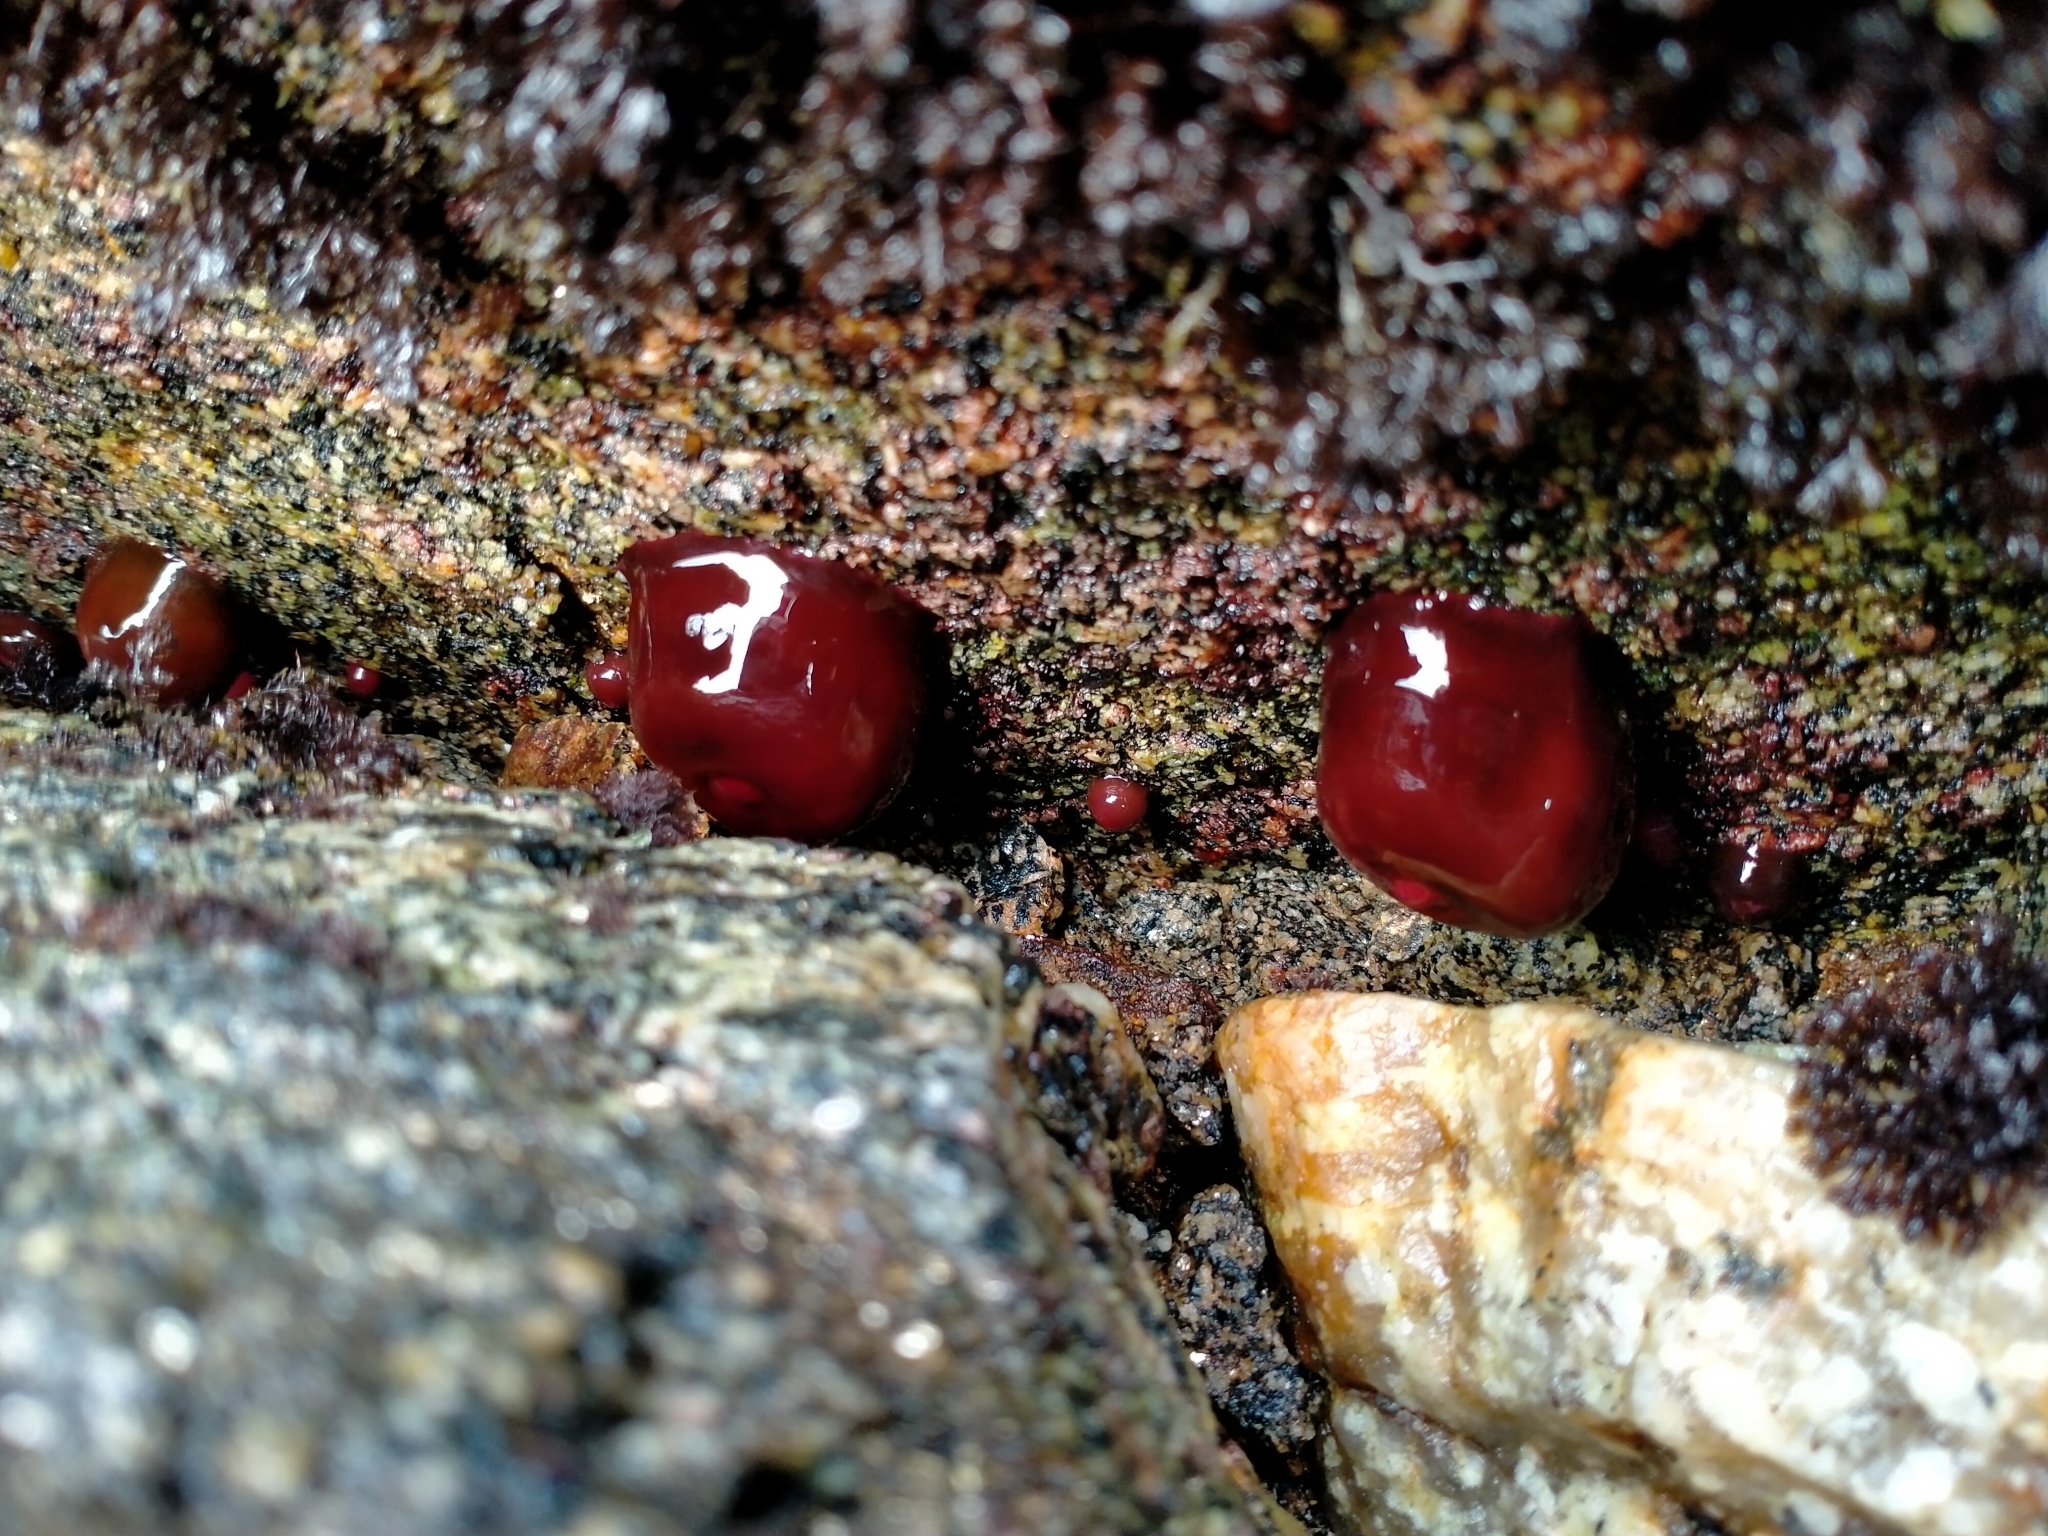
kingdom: Animalia
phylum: Cnidaria
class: Anthozoa
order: Actiniaria
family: Actiniidae
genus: Actinia
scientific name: Actinia tenebrosa
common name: Waratah anemone
